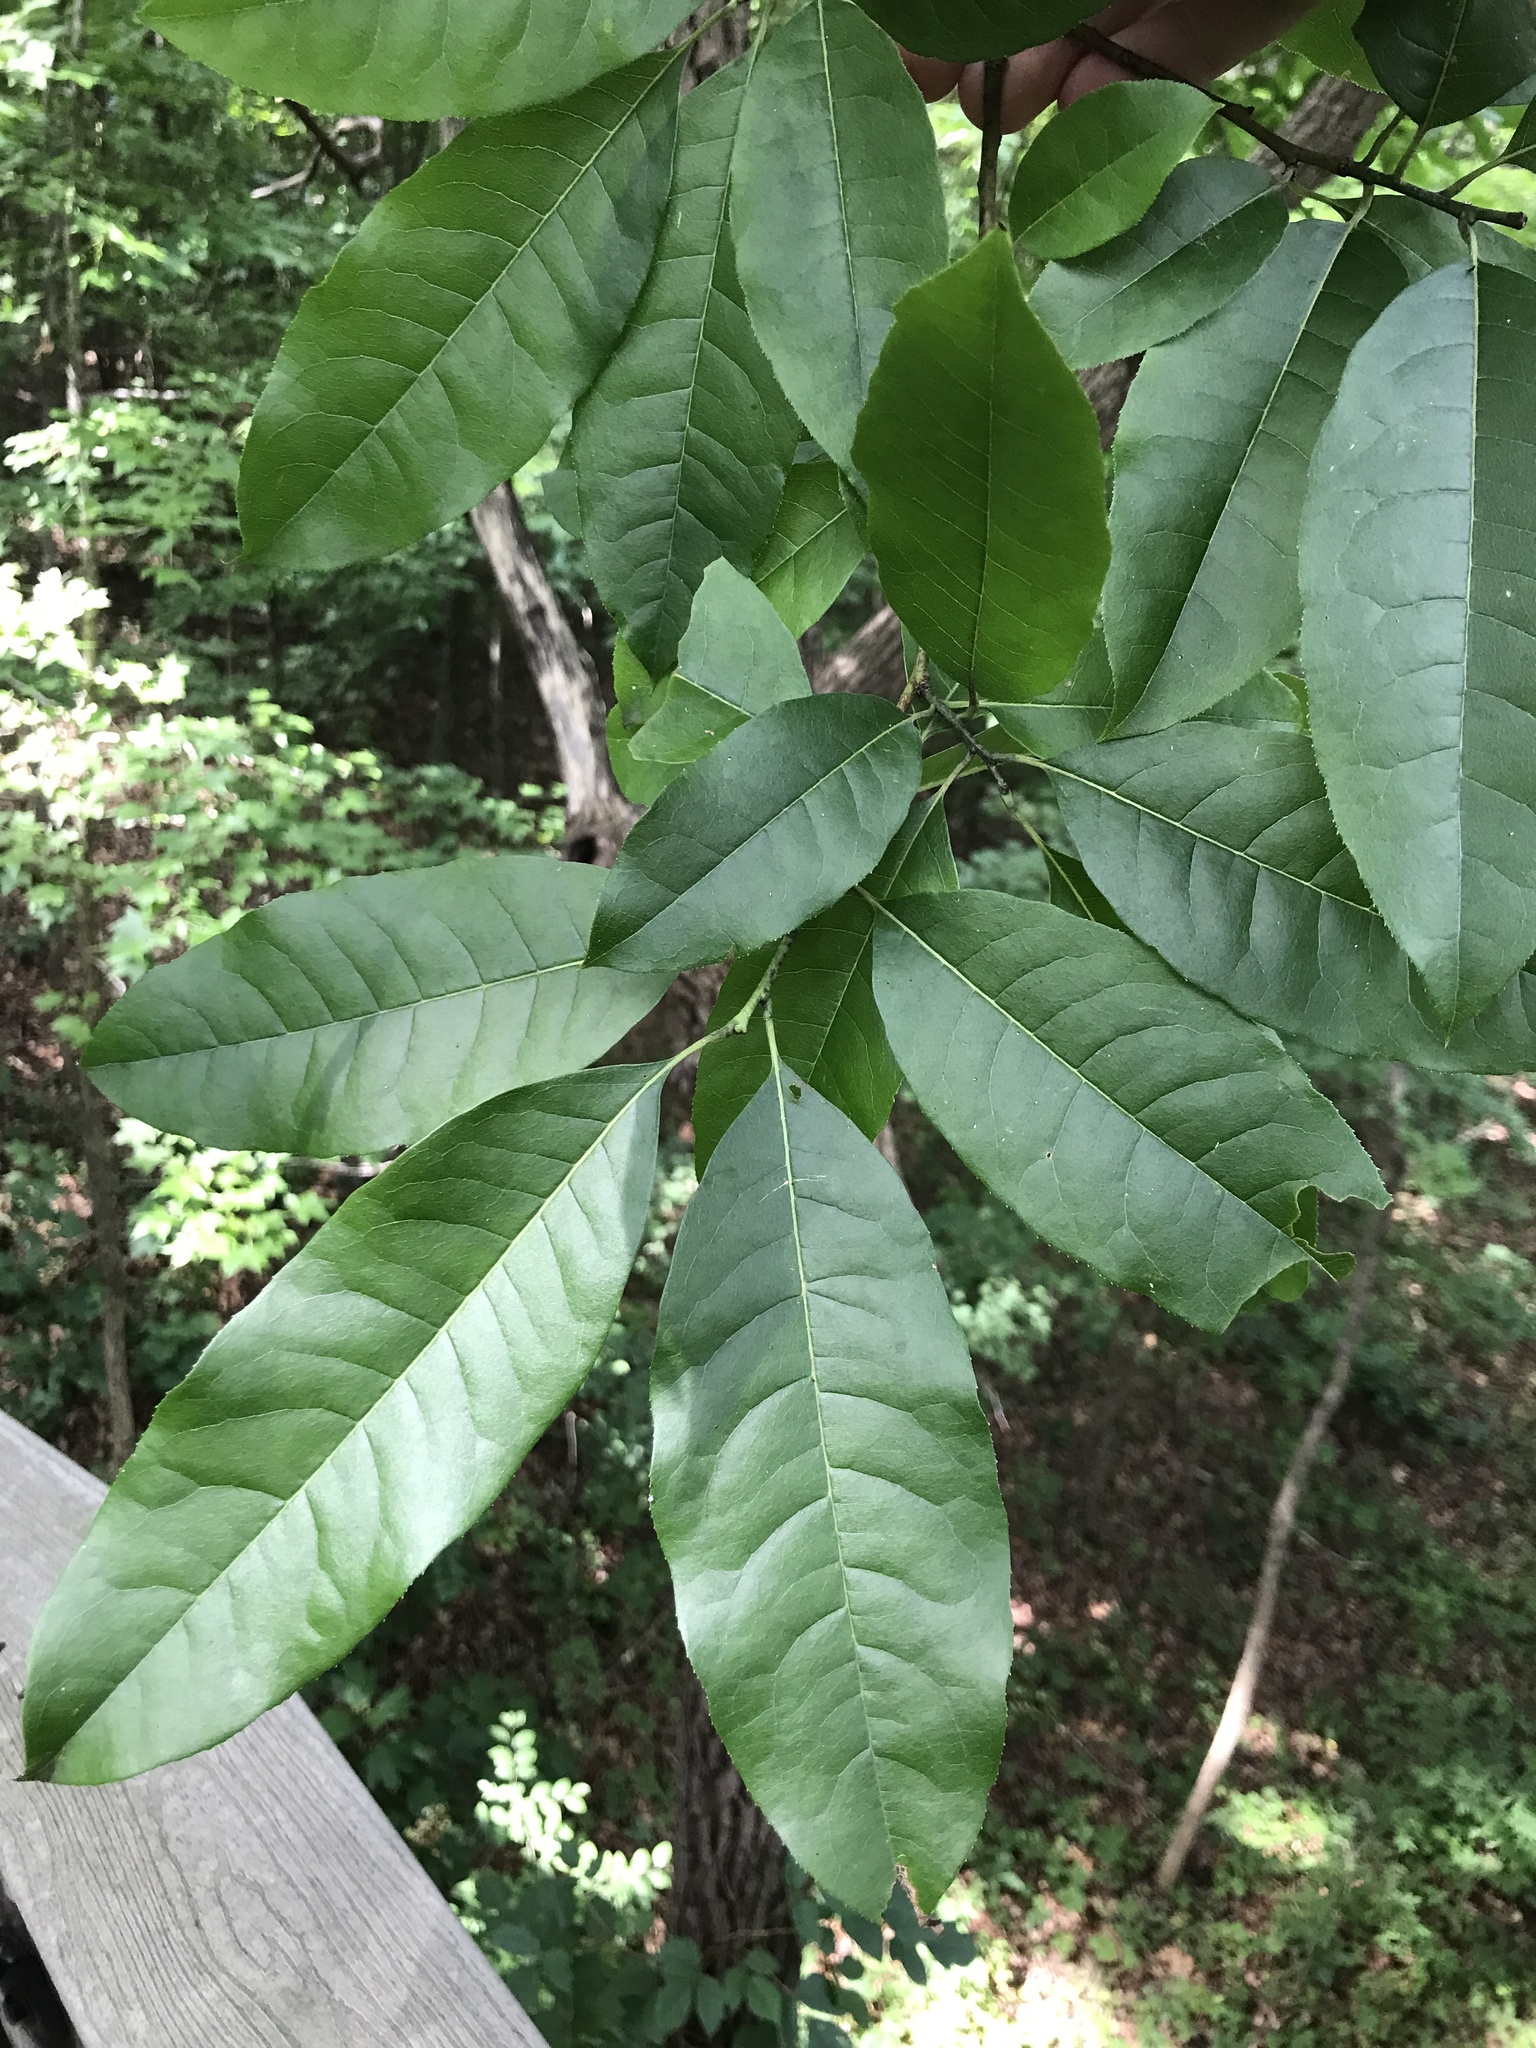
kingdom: Plantae
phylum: Tracheophyta
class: Magnoliopsida
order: Ericales
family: Ericaceae
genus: Oxydendrum
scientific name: Oxydendrum arboreum
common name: Sourwood
